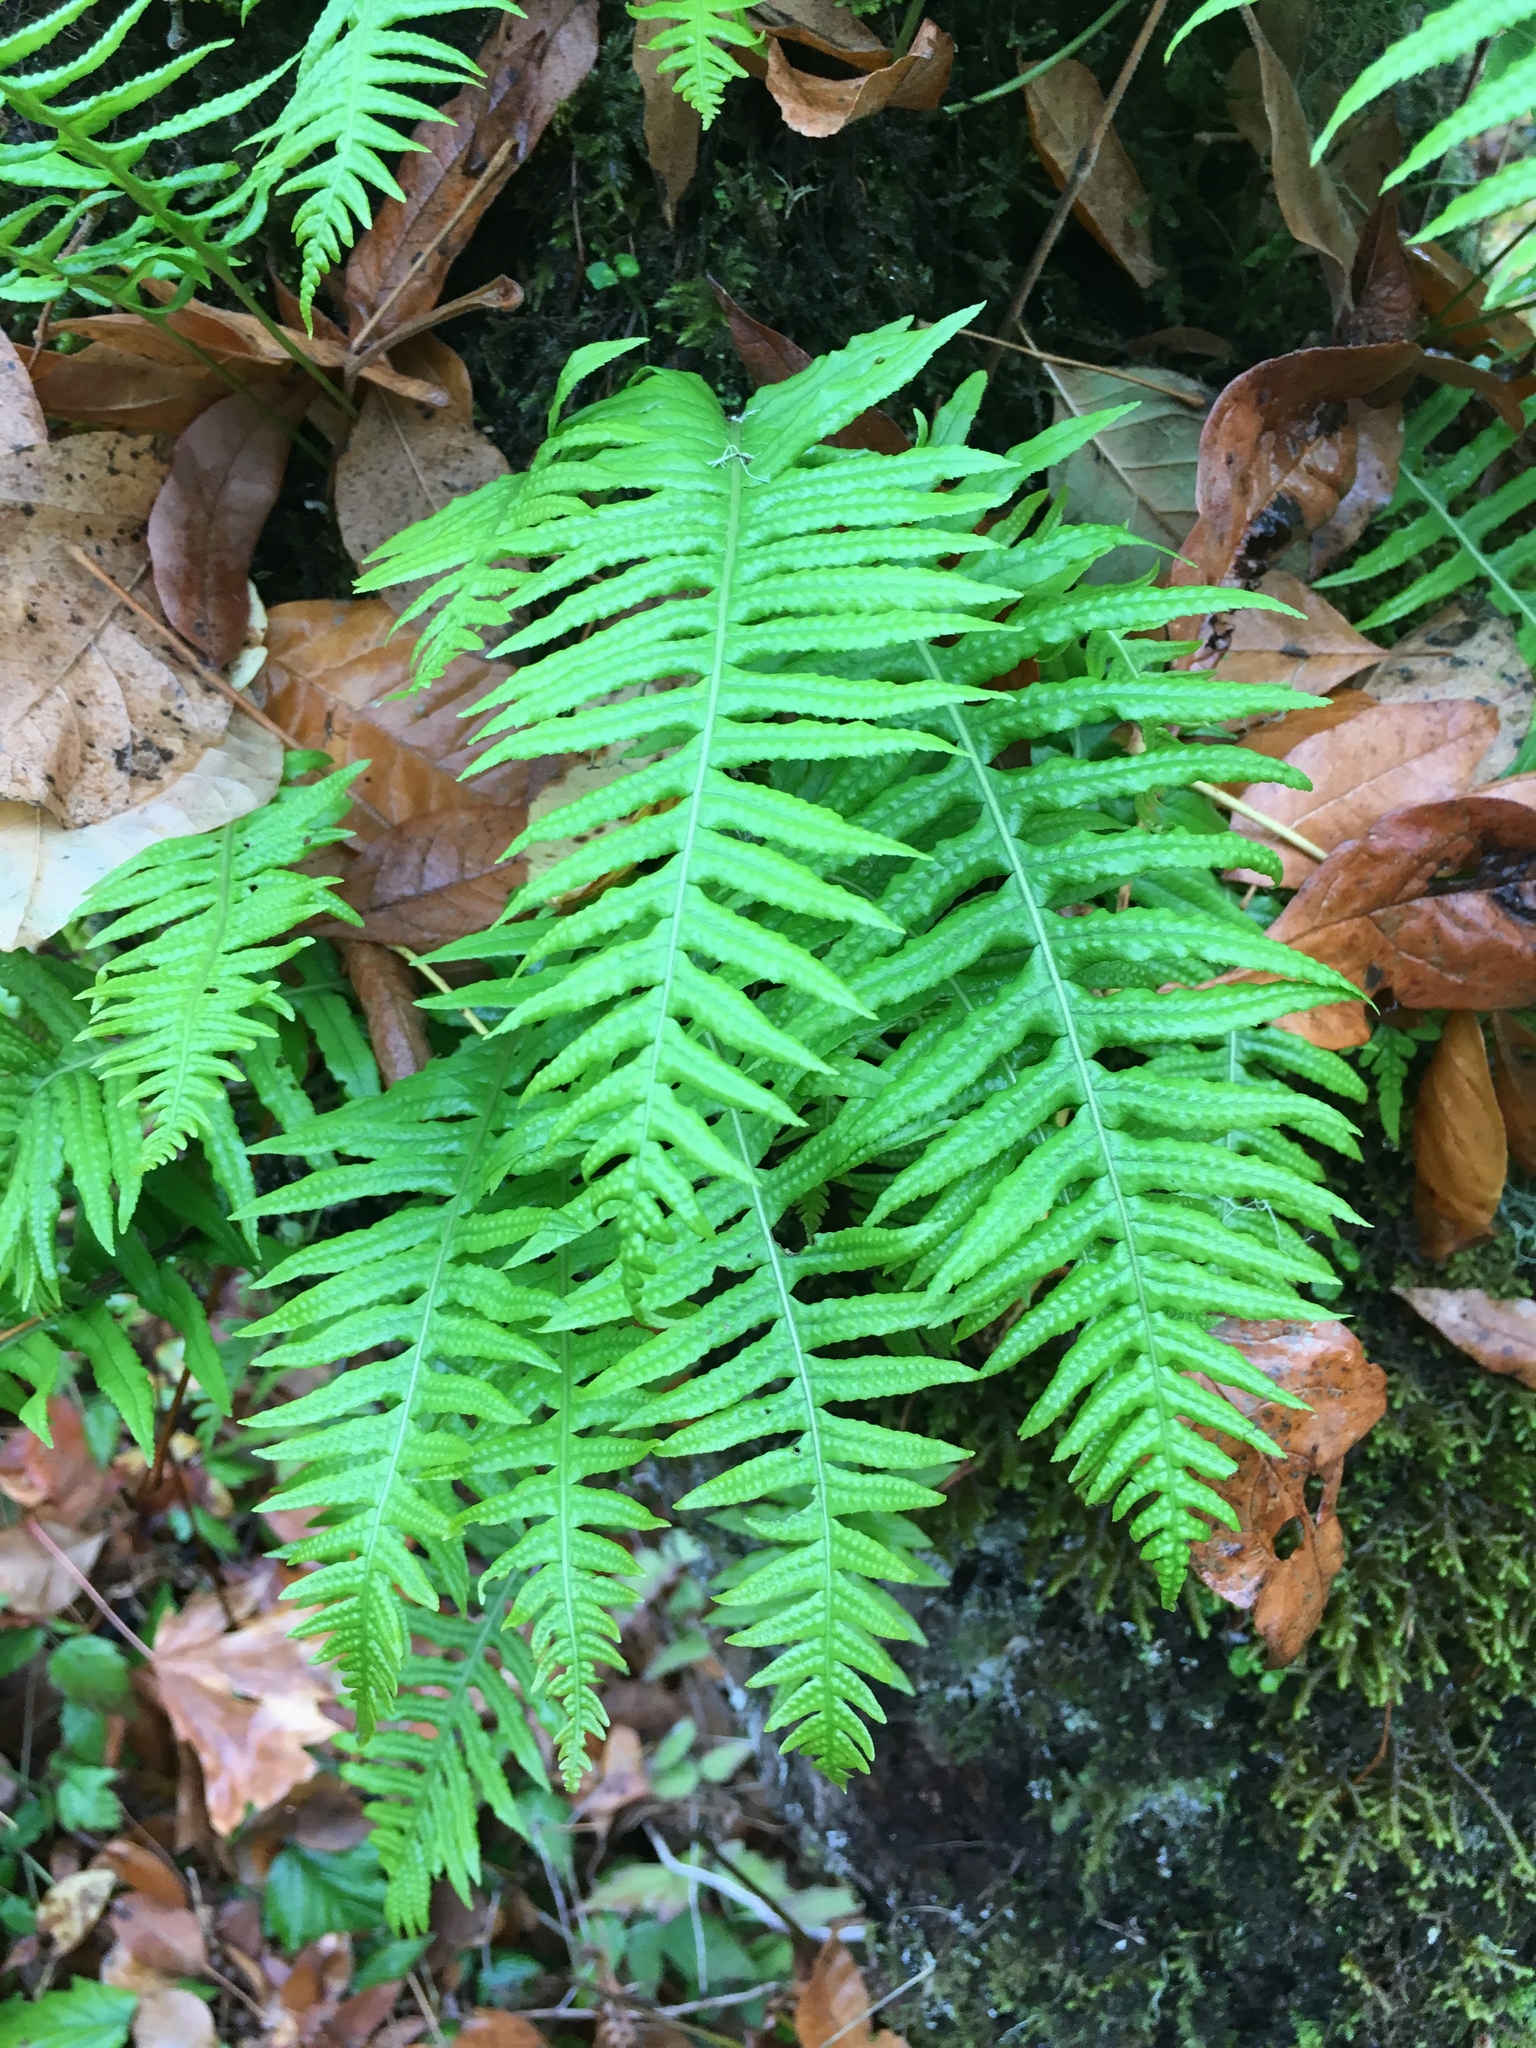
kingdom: Plantae
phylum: Tracheophyta
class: Polypodiopsida
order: Polypodiales
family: Polypodiaceae
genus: Polypodium
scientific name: Polypodium glycyrrhiza
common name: Licorice fern
